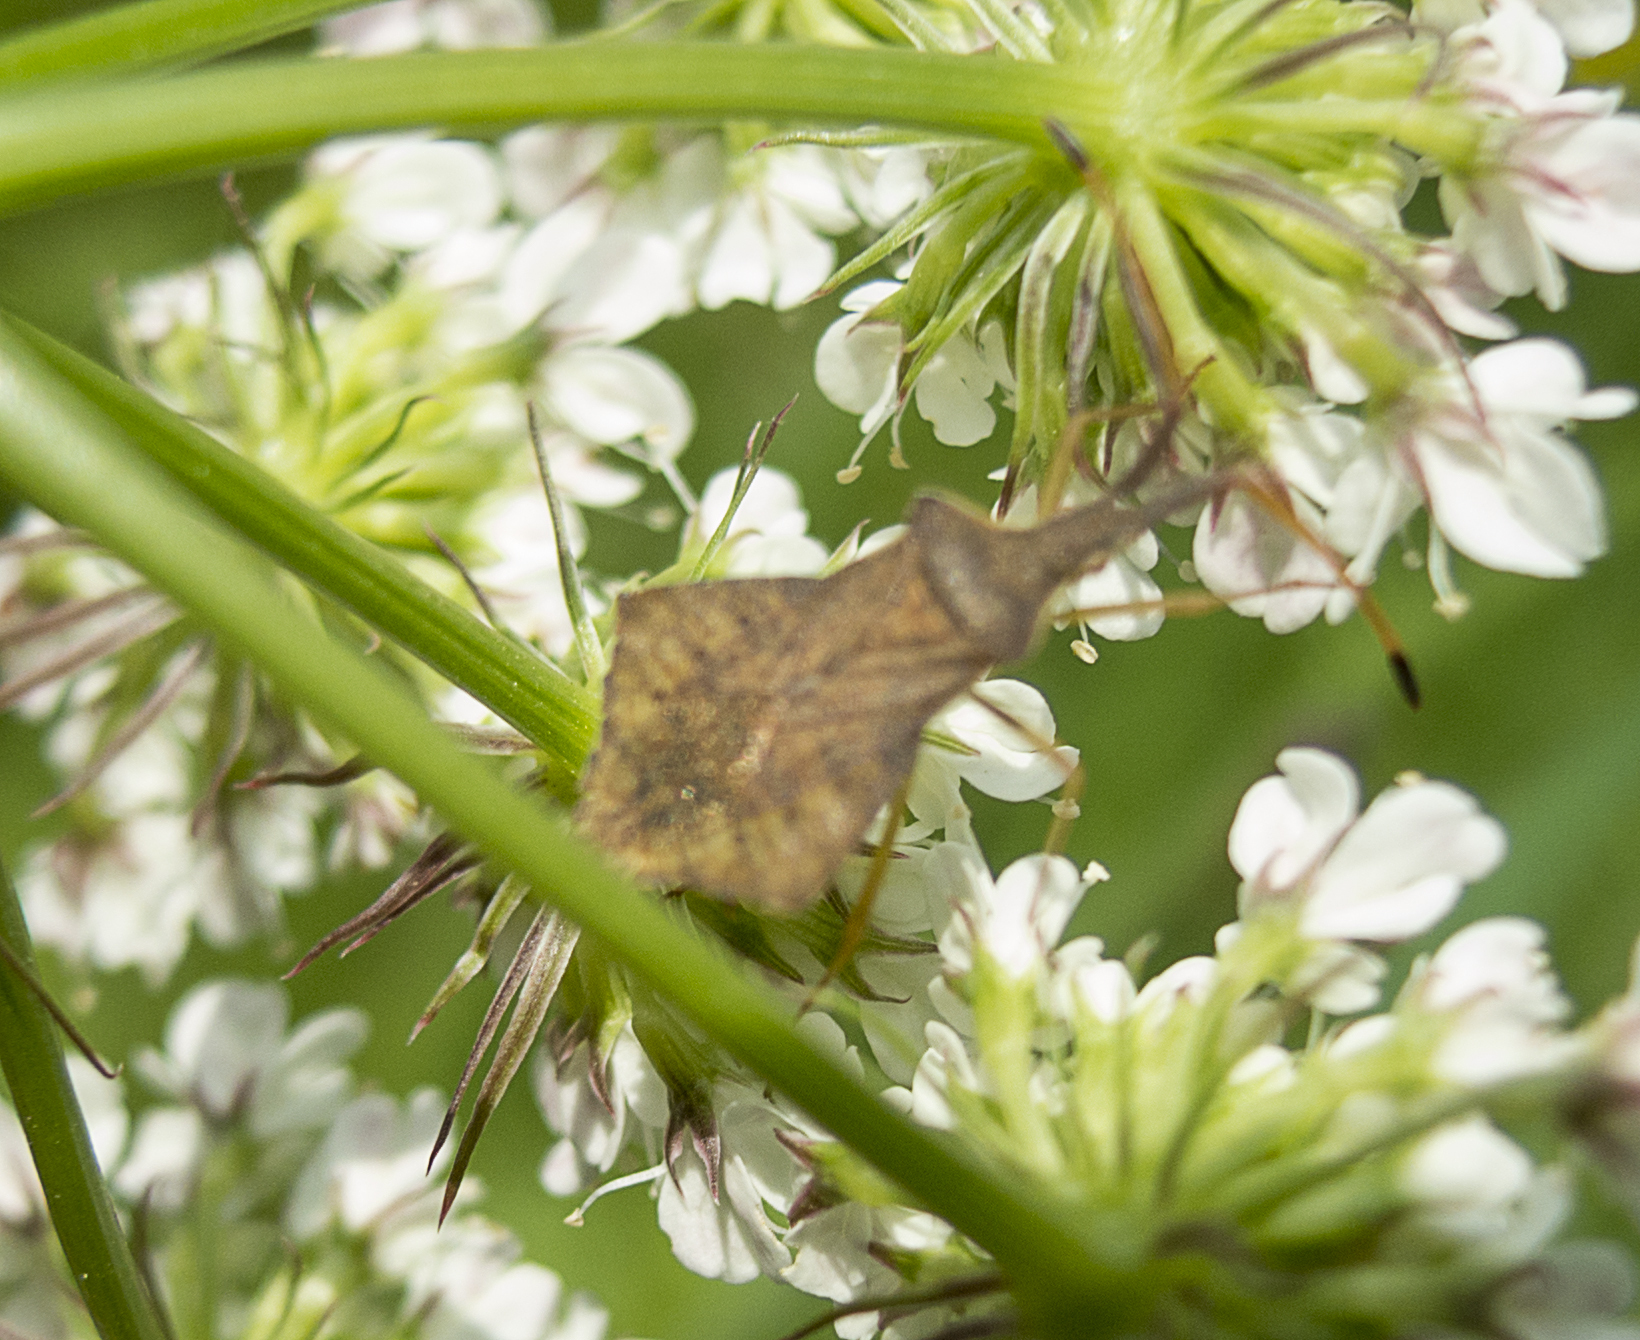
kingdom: Animalia
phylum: Arthropoda
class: Insecta
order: Hemiptera
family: Coreidae
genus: Syromastus
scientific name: Syromastus rhombeus
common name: Rhombic leatherbug
